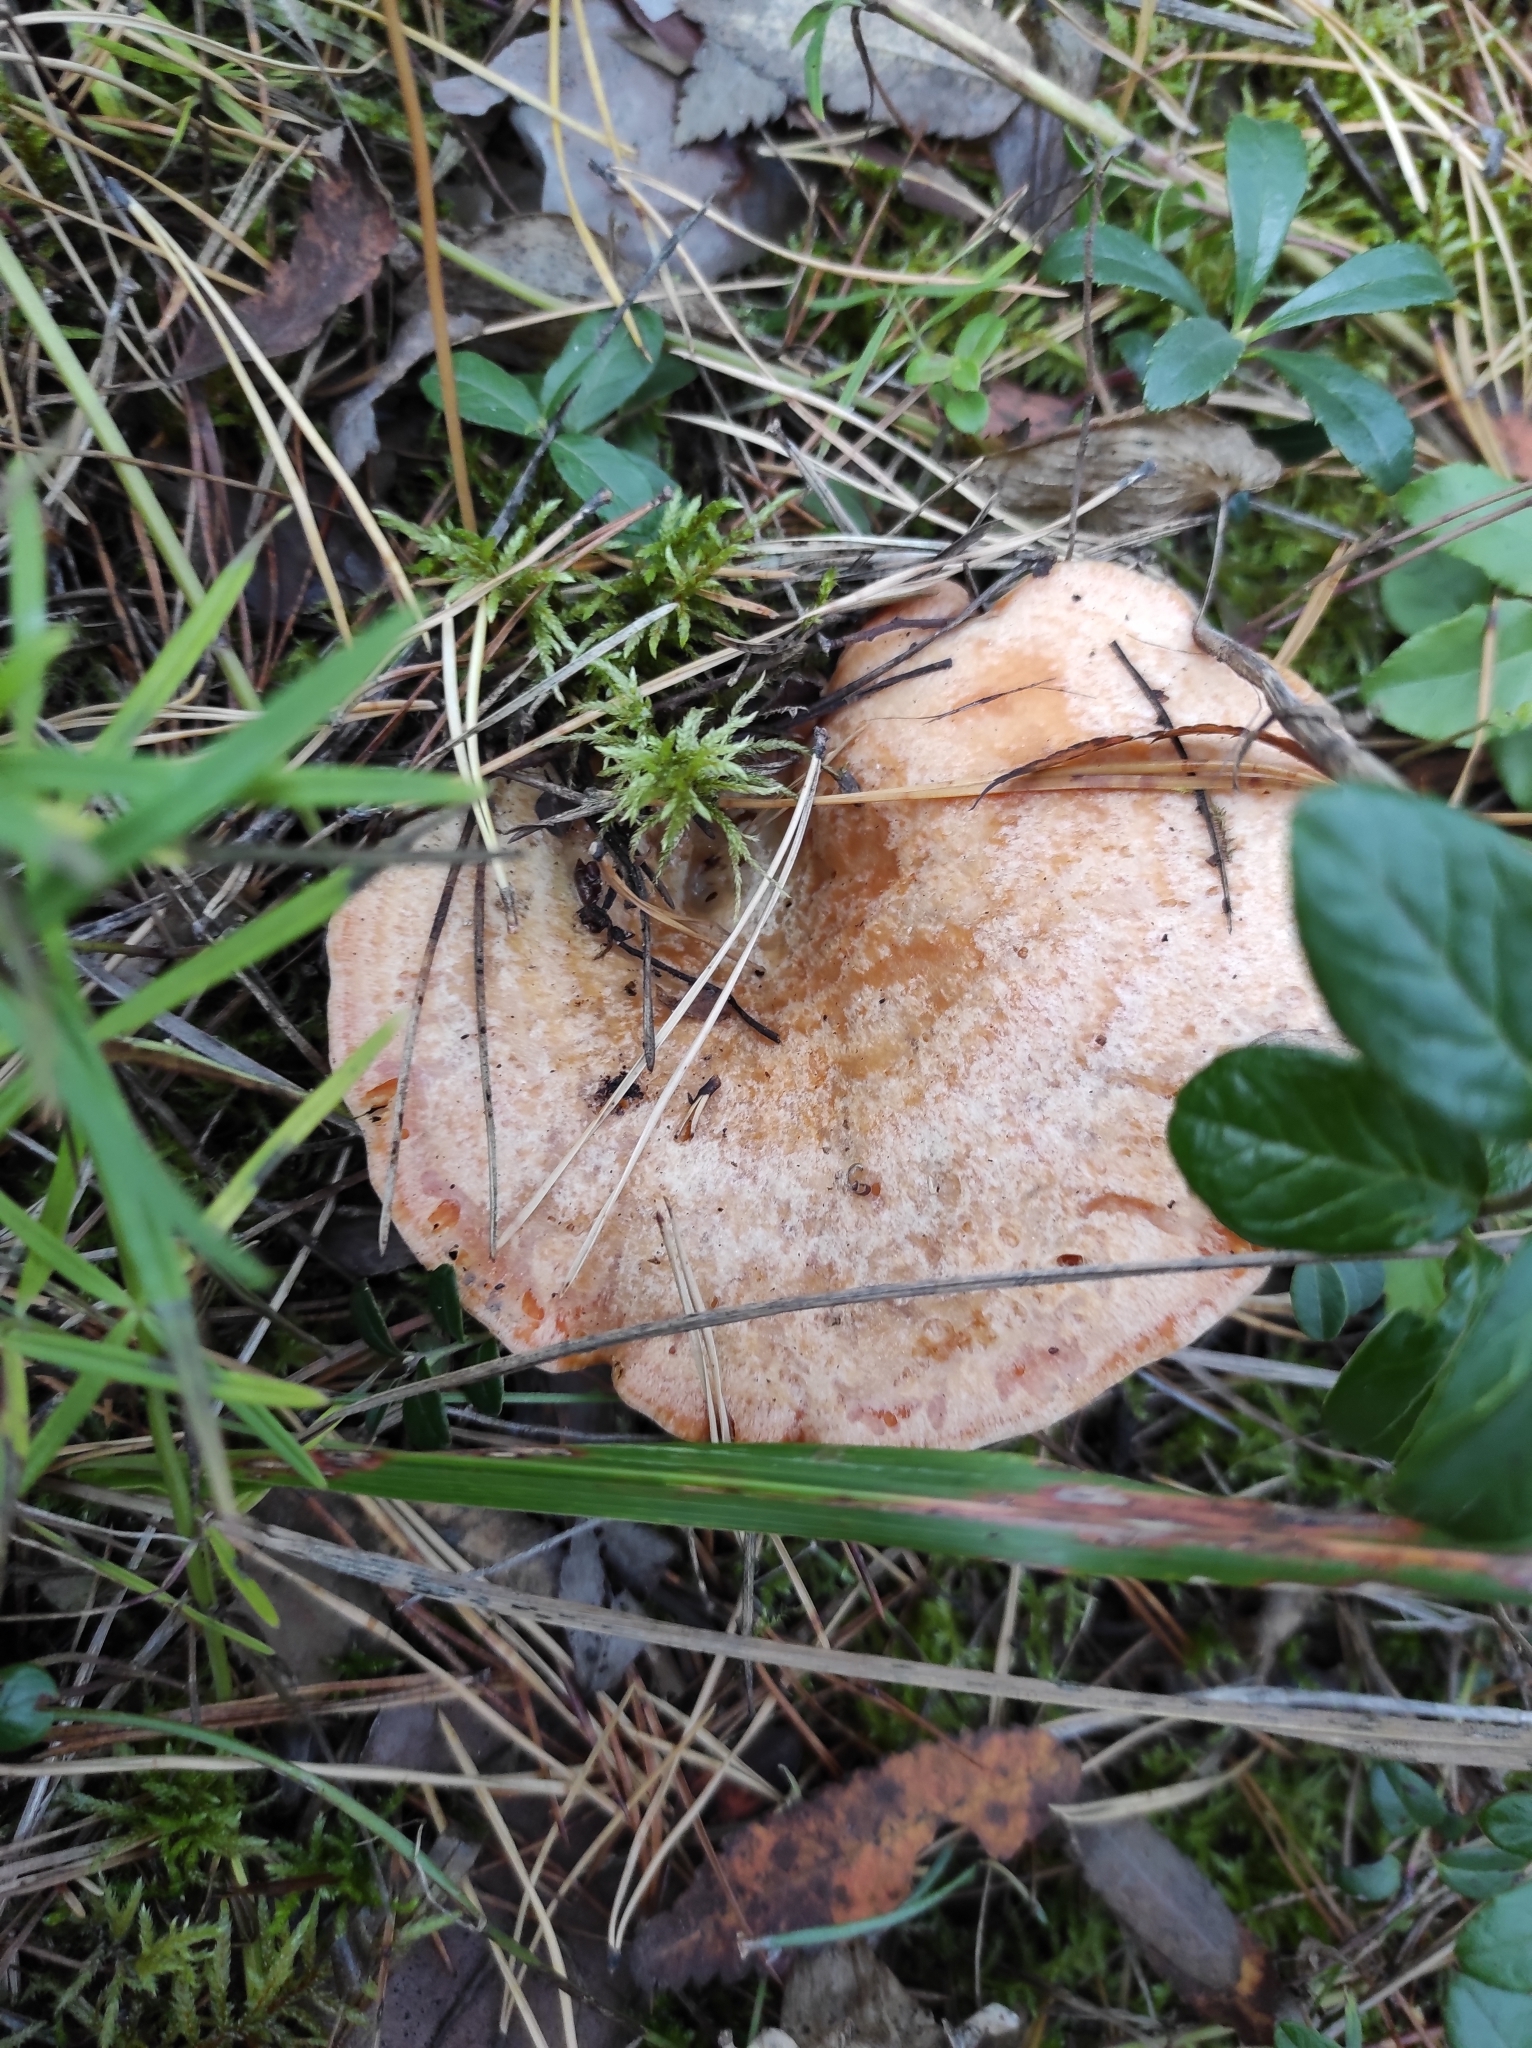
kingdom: Fungi
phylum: Basidiomycota
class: Agaricomycetes
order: Russulales
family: Russulaceae
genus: Lactarius
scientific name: Lactarius deliciosus
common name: Saffron milk-cap
